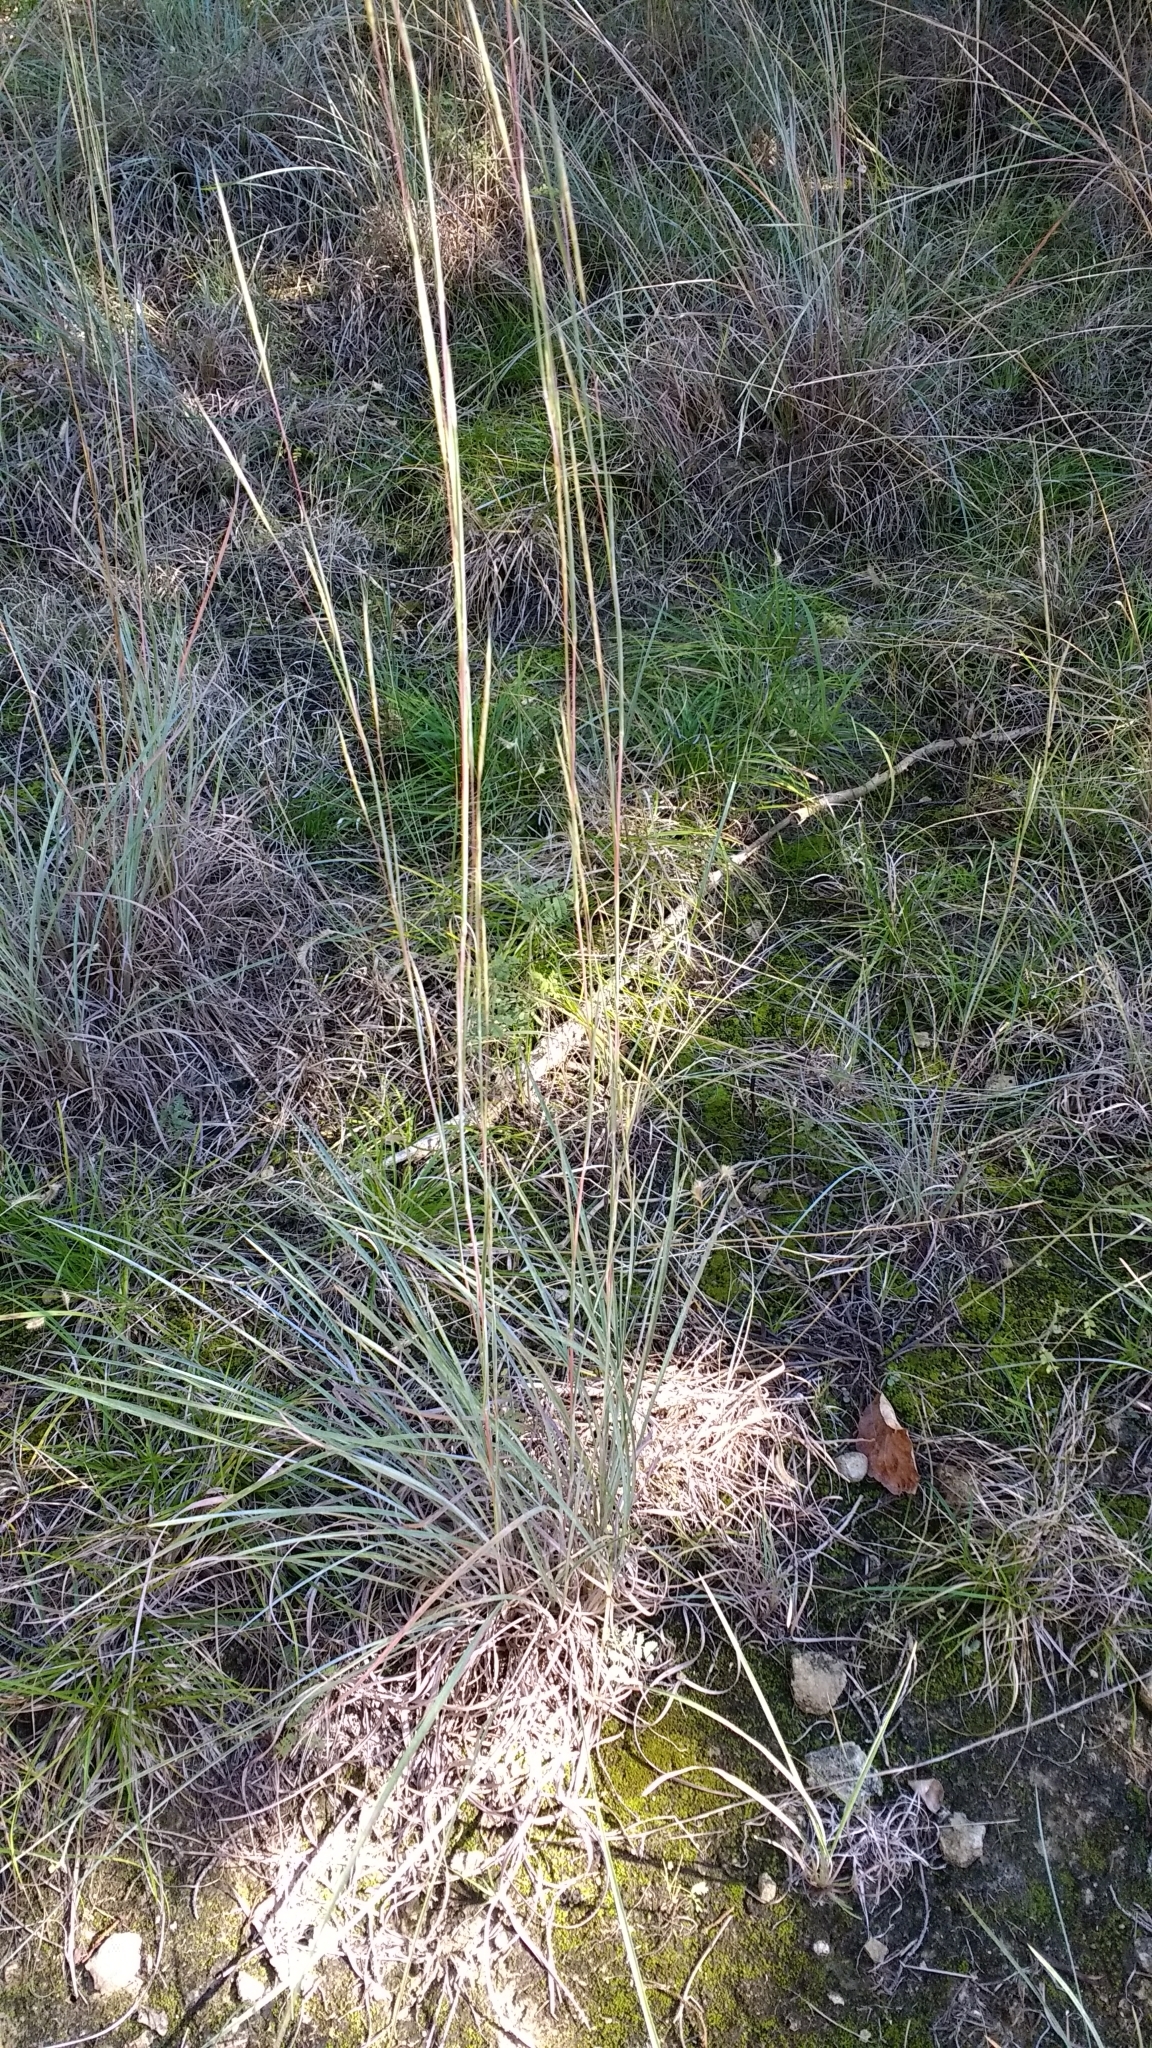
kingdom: Plantae
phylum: Tracheophyta
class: Liliopsida
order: Poales
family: Poaceae
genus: Schizachyrium
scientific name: Schizachyrium scoparium
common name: Little bluestem
